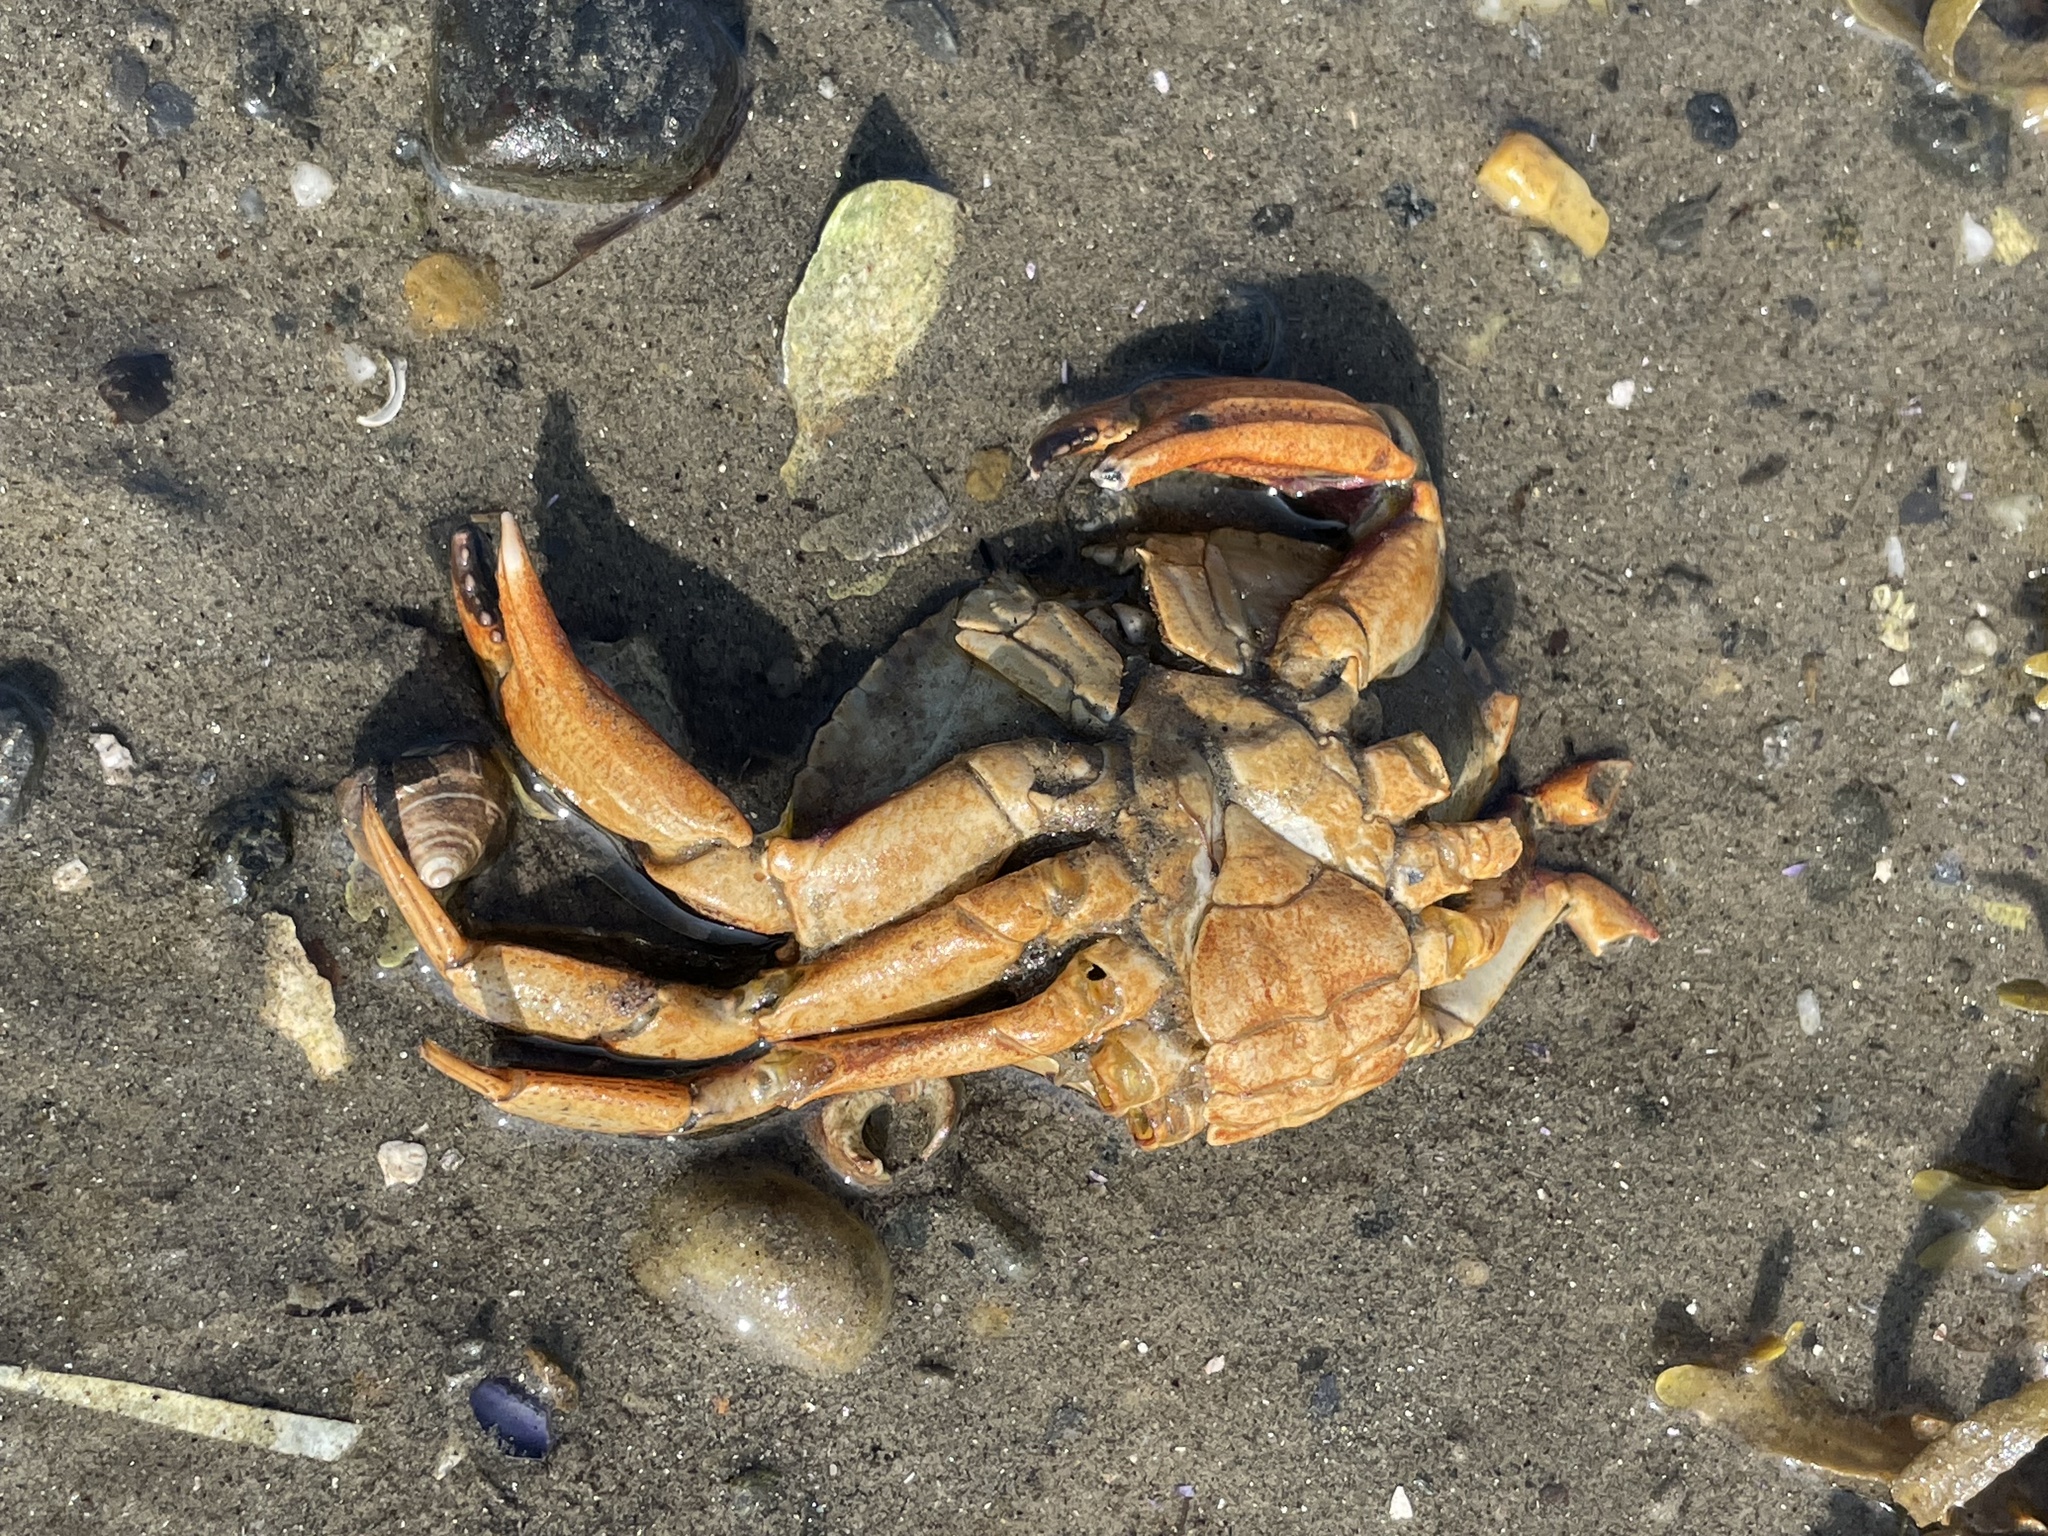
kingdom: Animalia
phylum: Arthropoda
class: Malacostraca
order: Decapoda
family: Cancridae
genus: Cancer
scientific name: Cancer irroratus
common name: Atlantic rock crab
